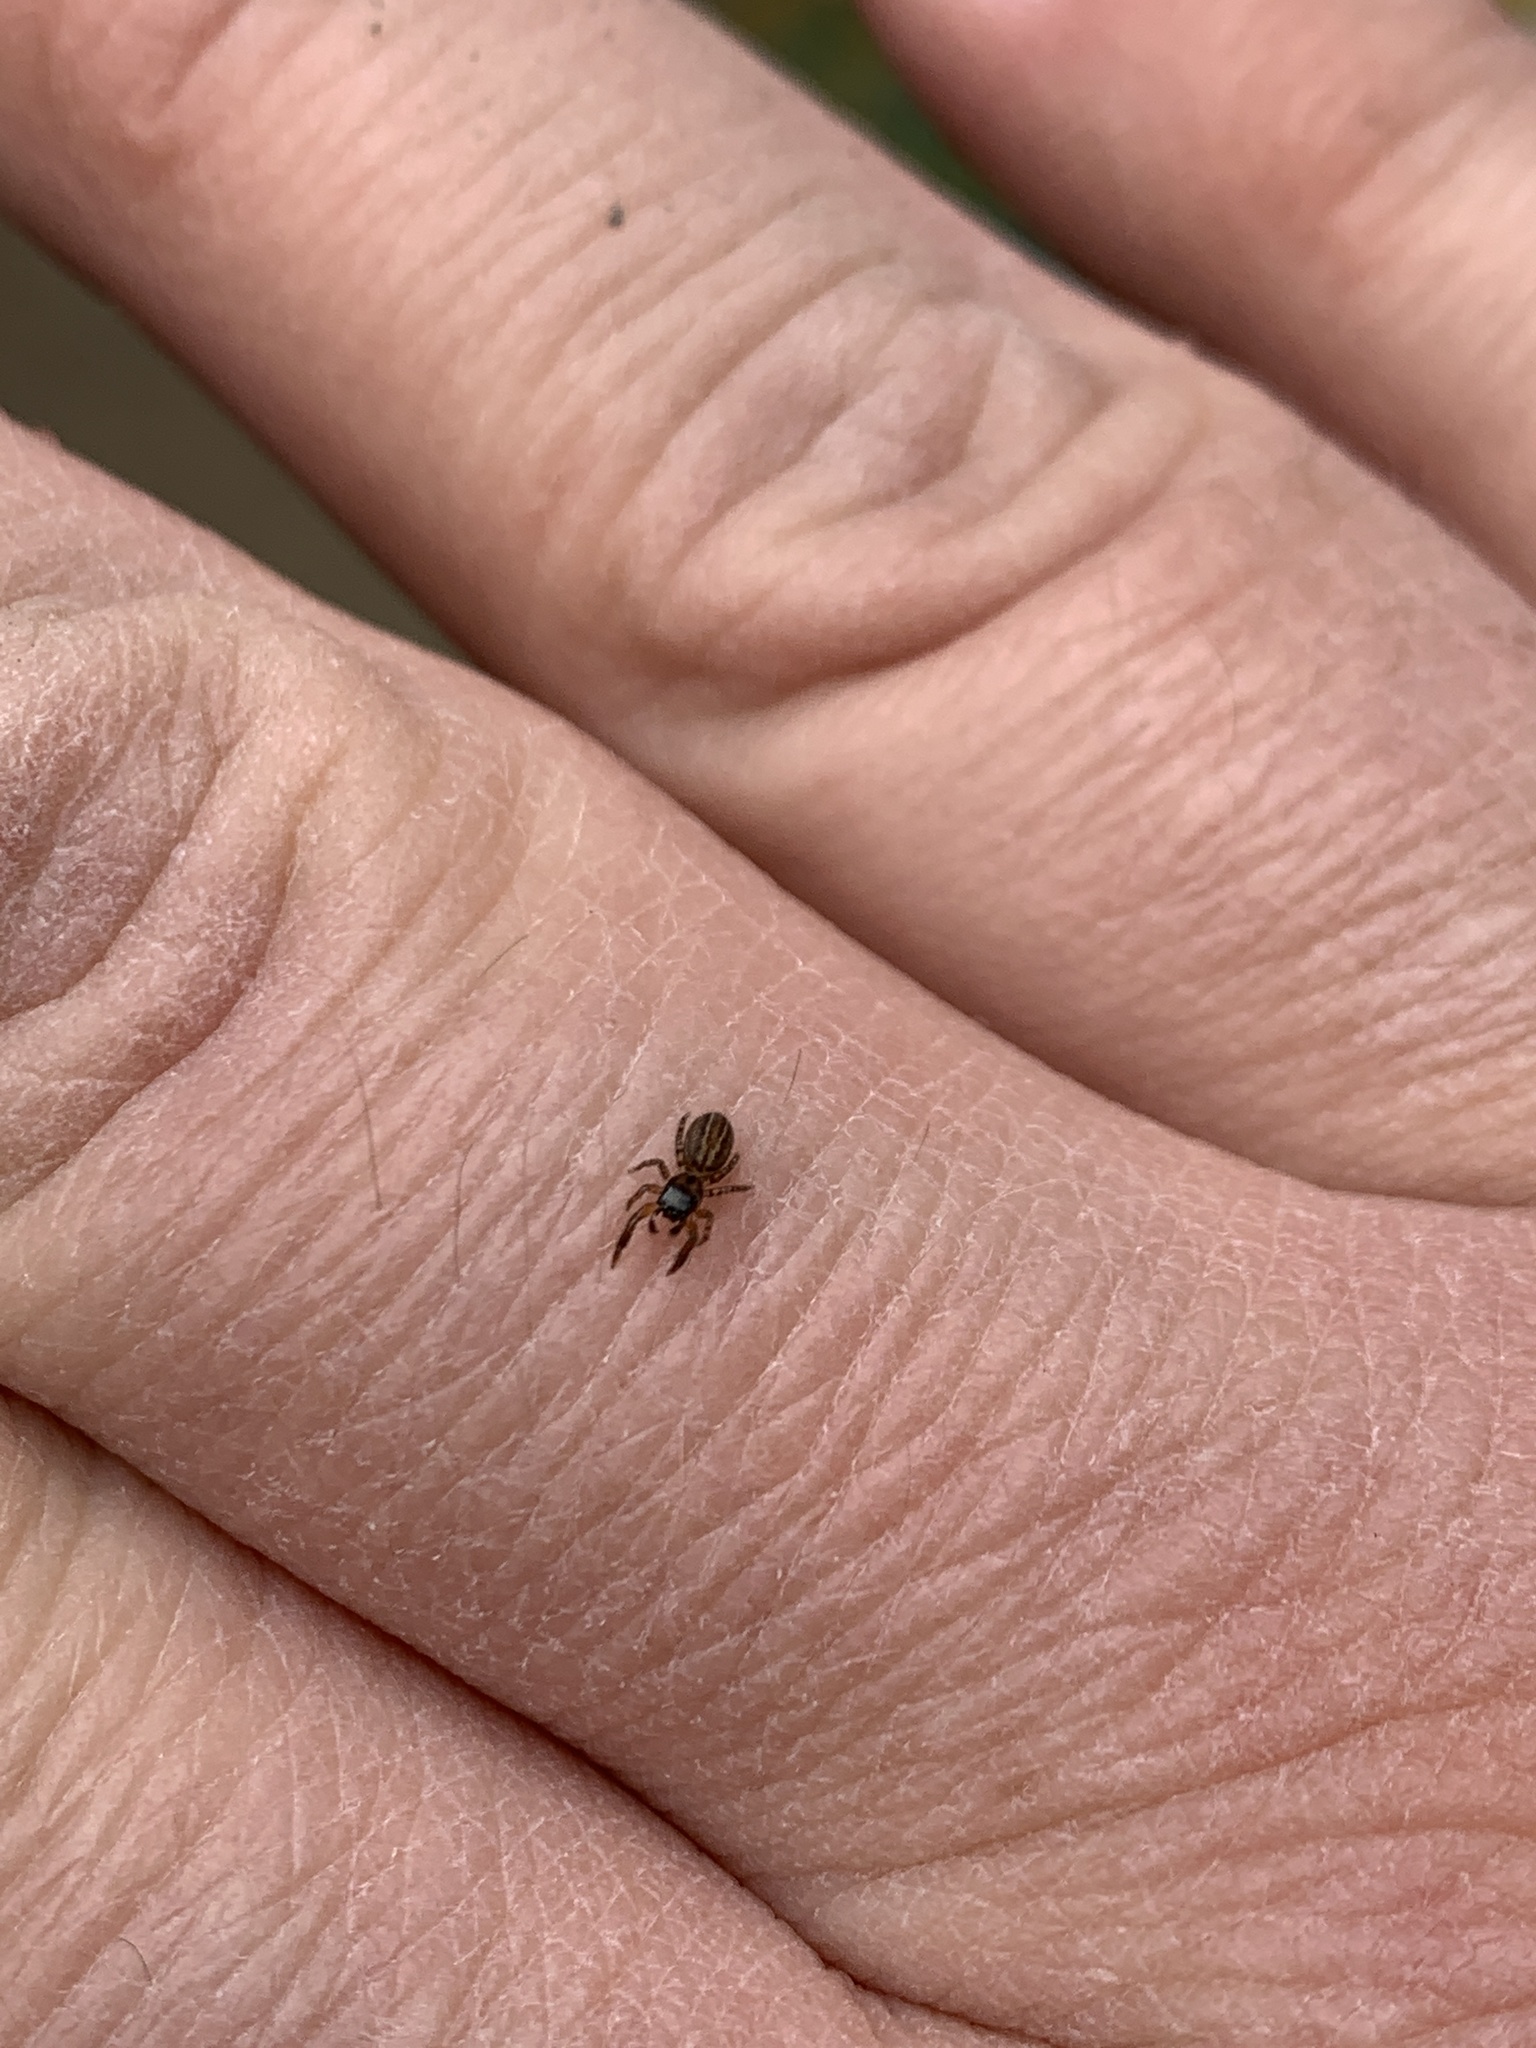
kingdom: Animalia
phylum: Arthropoda
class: Arachnida
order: Araneae
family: Salticidae
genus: Marpissa
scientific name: Marpissa lineata
